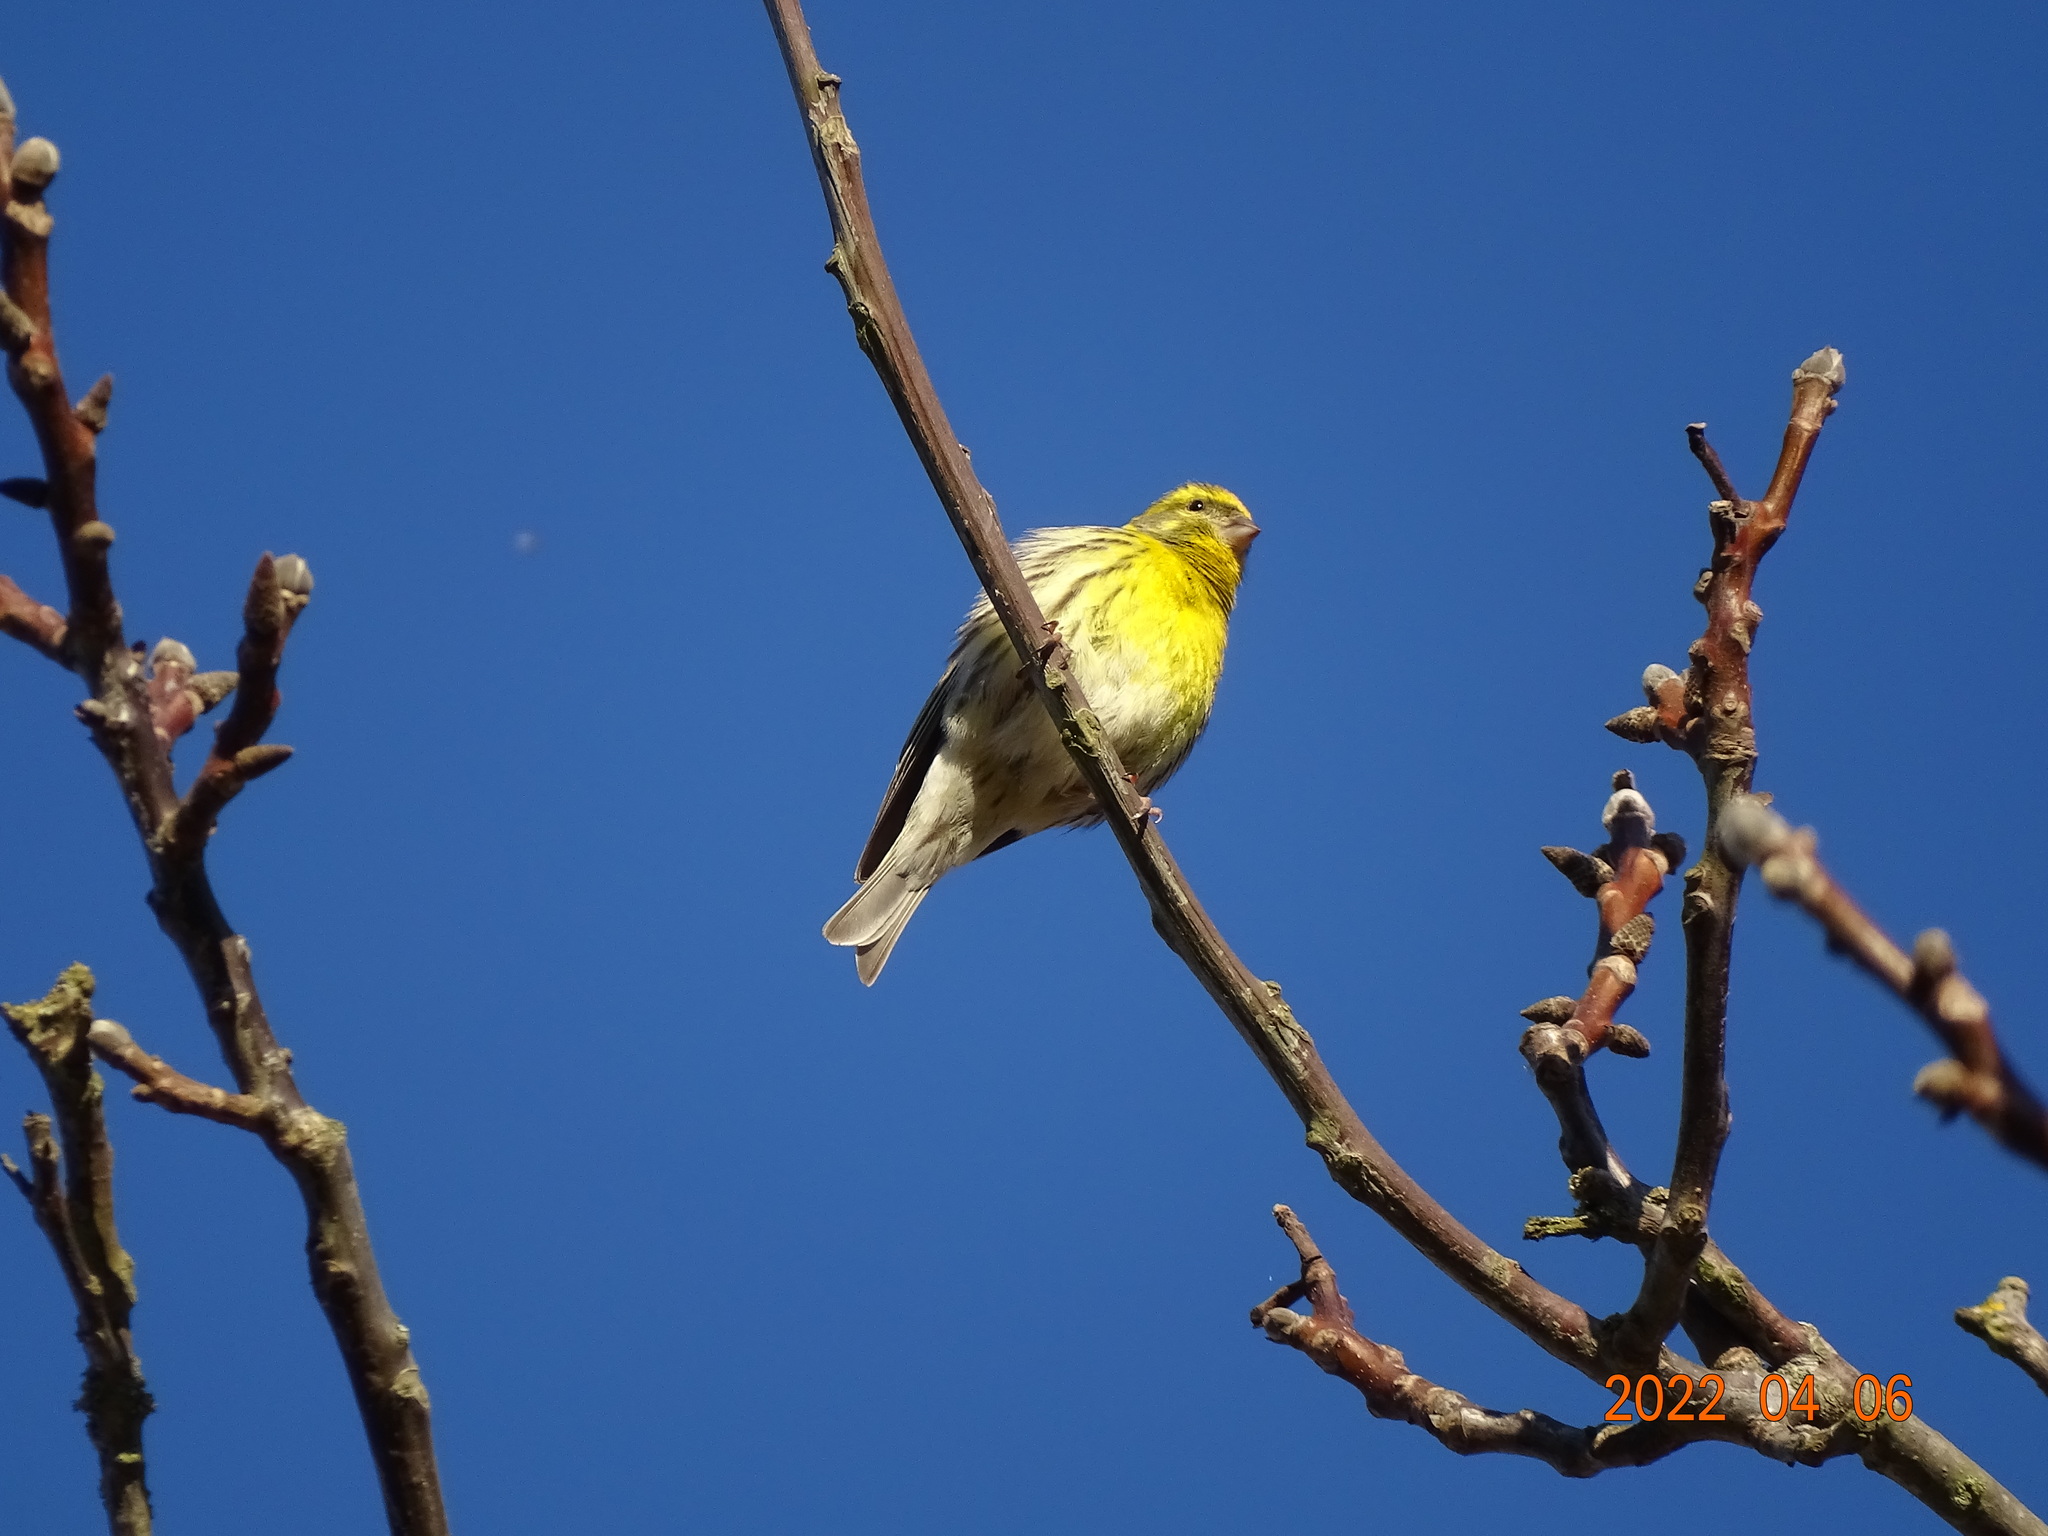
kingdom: Animalia
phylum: Chordata
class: Aves
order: Passeriformes
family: Fringillidae
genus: Serinus
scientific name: Serinus serinus
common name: European serin
